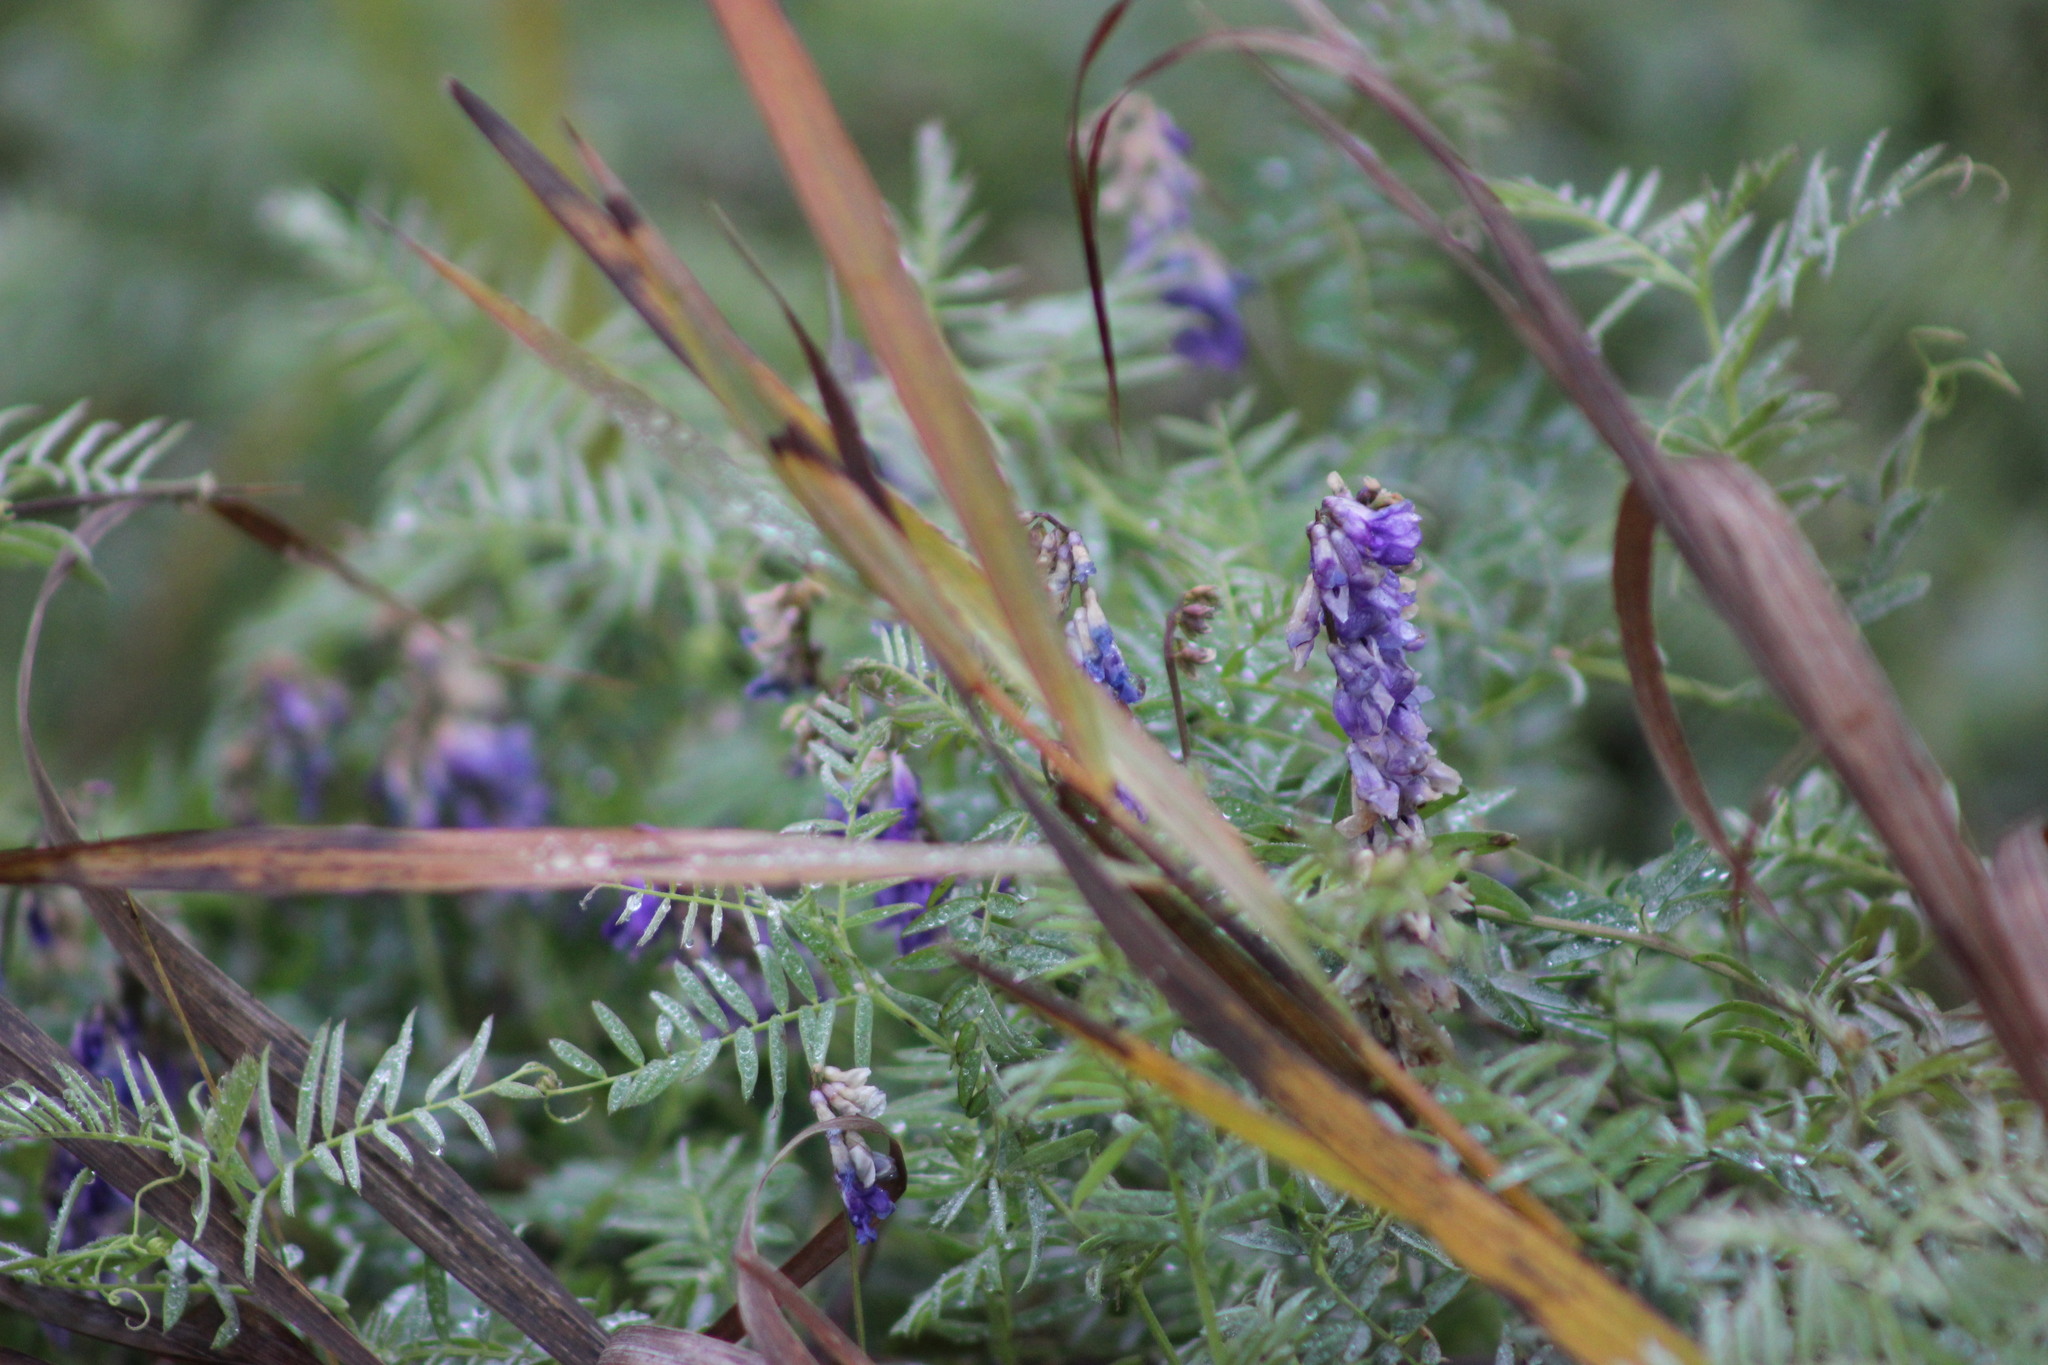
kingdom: Plantae
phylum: Tracheophyta
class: Magnoliopsida
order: Fabales
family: Fabaceae
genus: Vicia
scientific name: Vicia cracca
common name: Bird vetch
